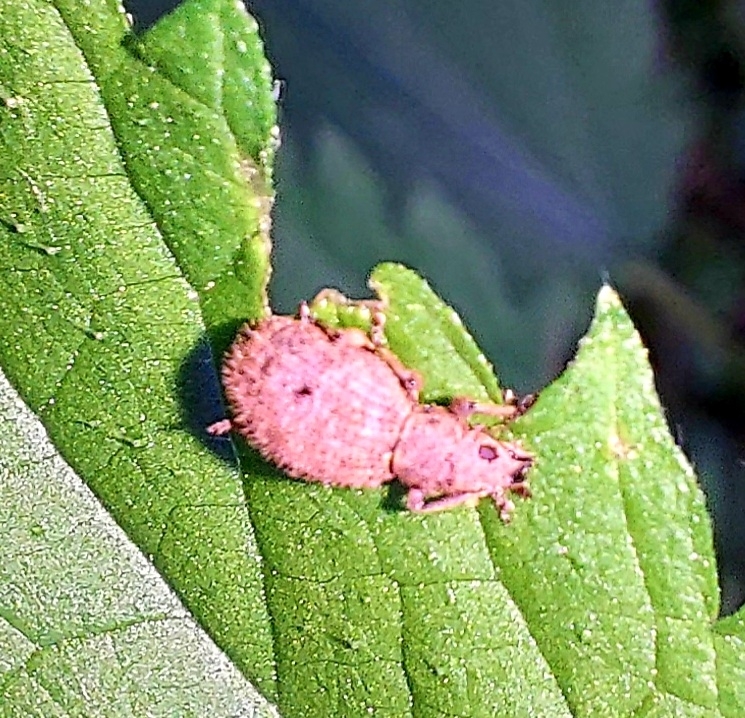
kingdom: Animalia
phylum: Arthropoda
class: Insecta
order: Coleoptera
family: Curculionidae
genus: Sciaphilus
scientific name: Sciaphilus asperatus
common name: Weevil
